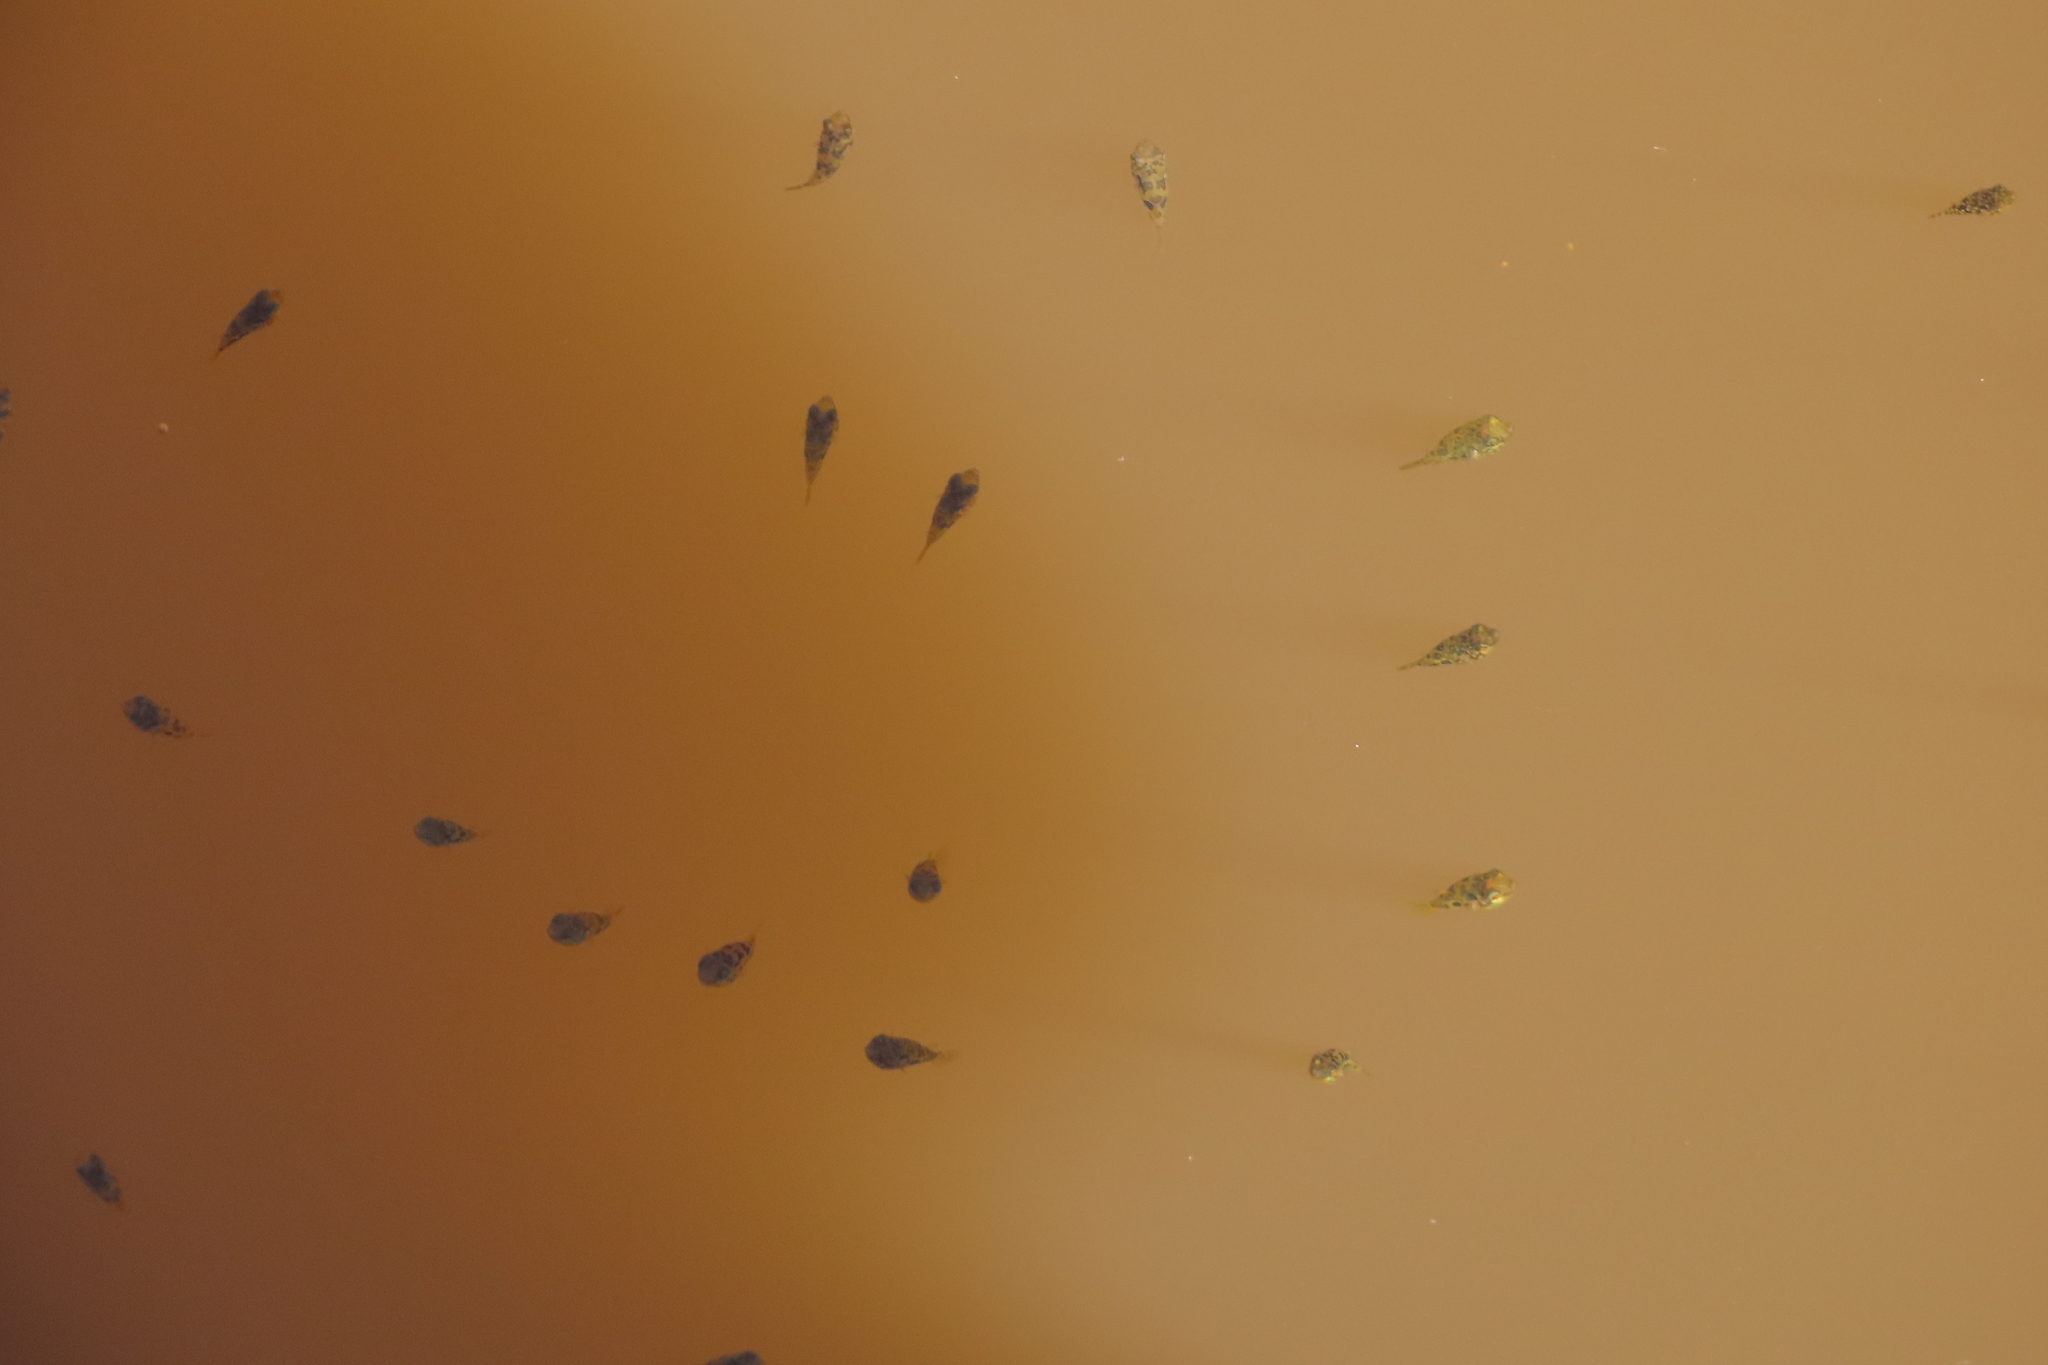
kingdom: Animalia
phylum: Chordata
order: Tetraodontiformes
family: Tetraodontidae
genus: Carinotetraodon
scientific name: Carinotetraodon travancoricus
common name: Dwarf indian puffer
